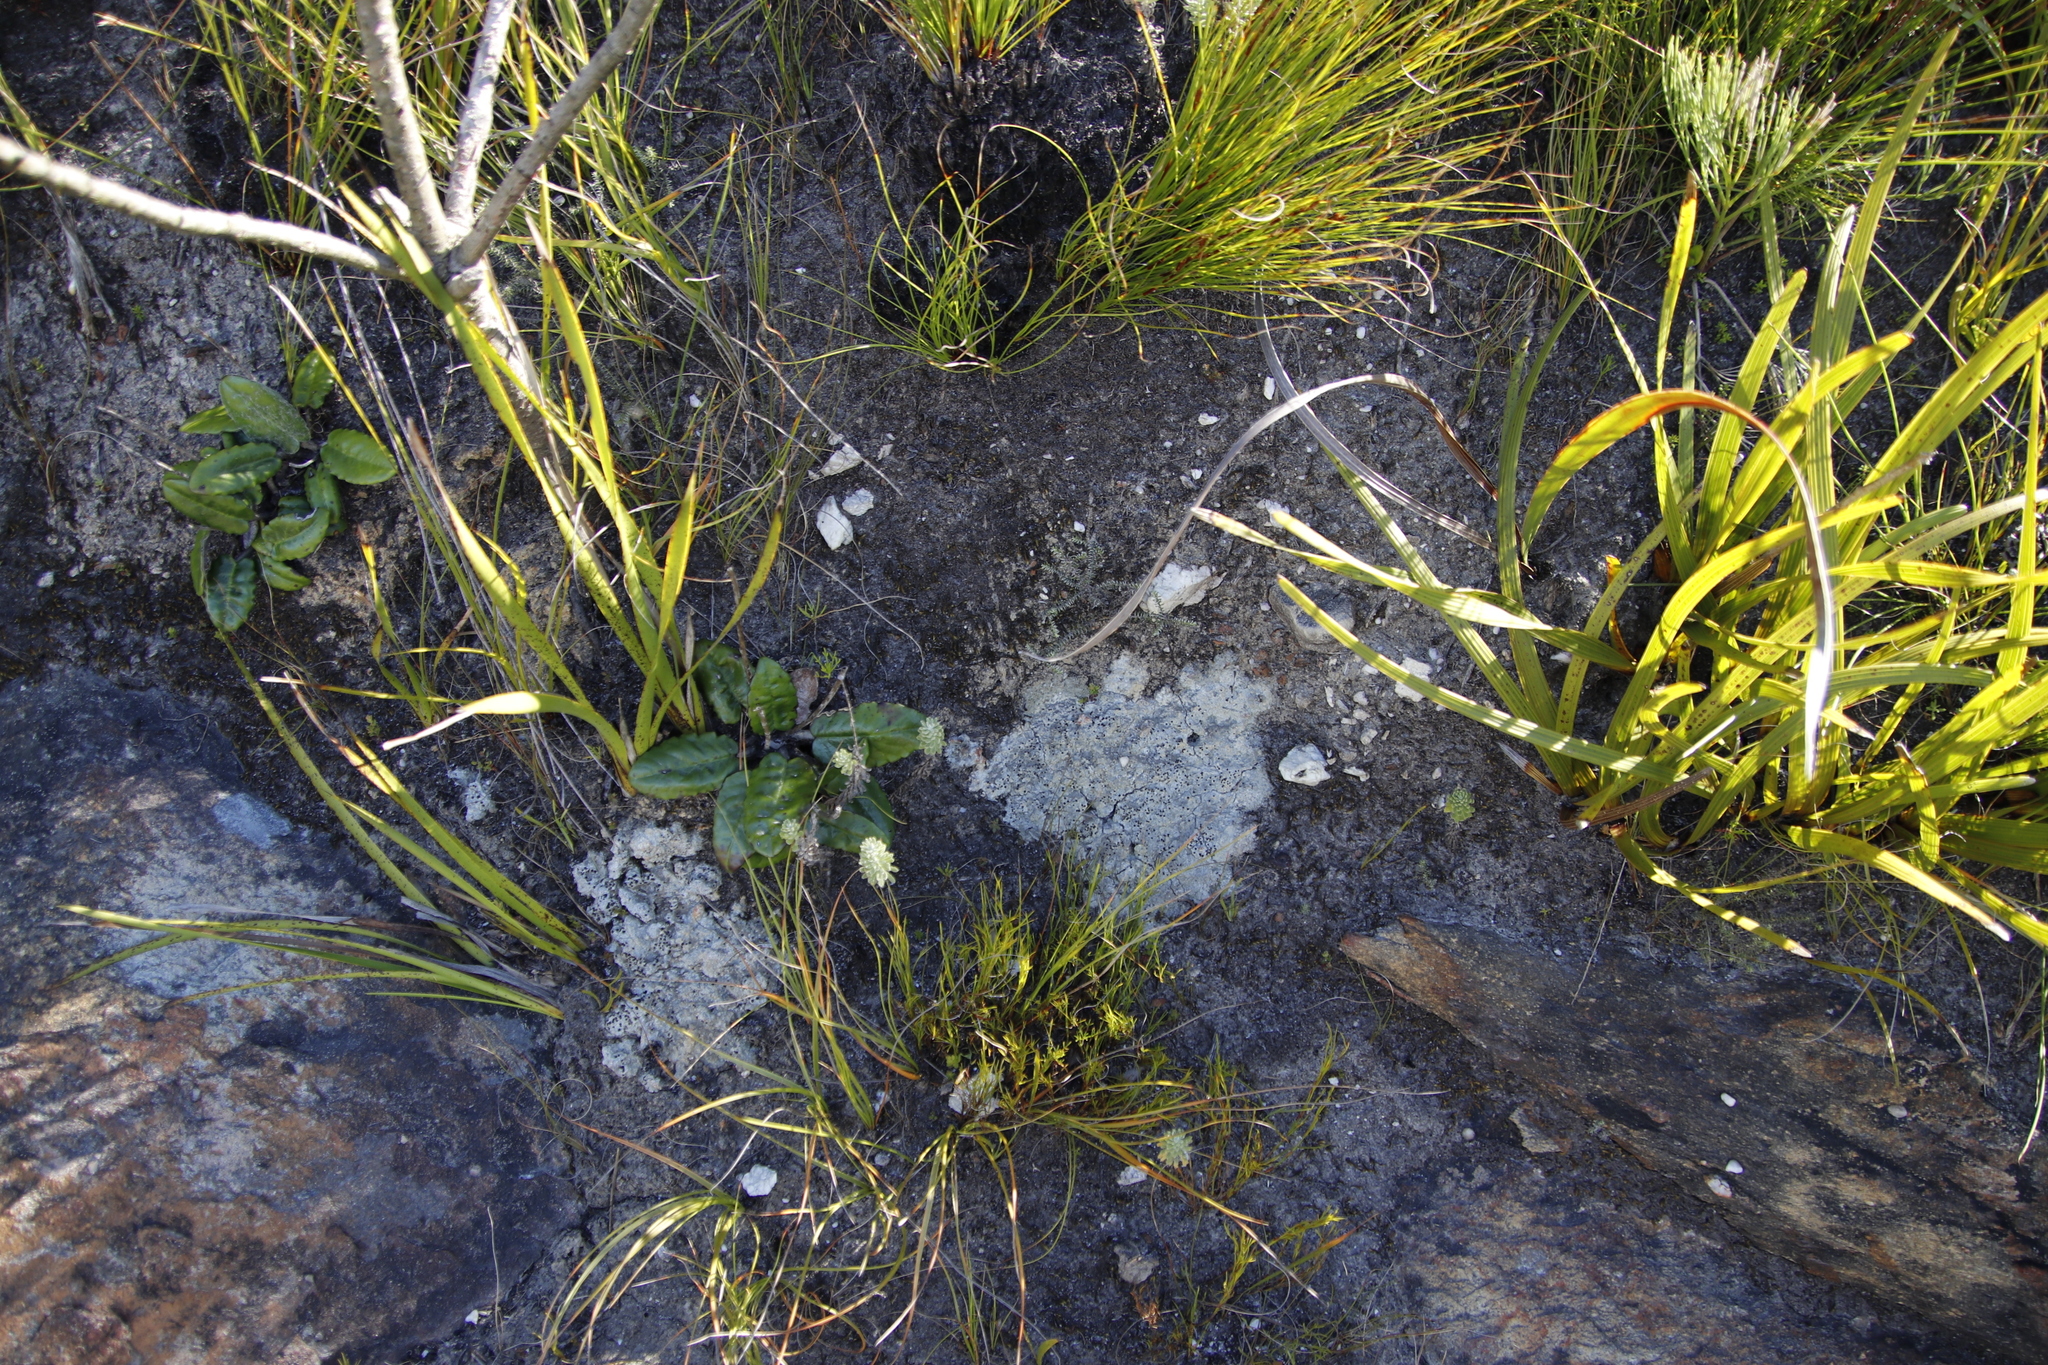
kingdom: Plantae
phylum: Tracheophyta
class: Magnoliopsida
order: Asterales
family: Asteraceae
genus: Osmitopsis
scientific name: Osmitopsis afra
